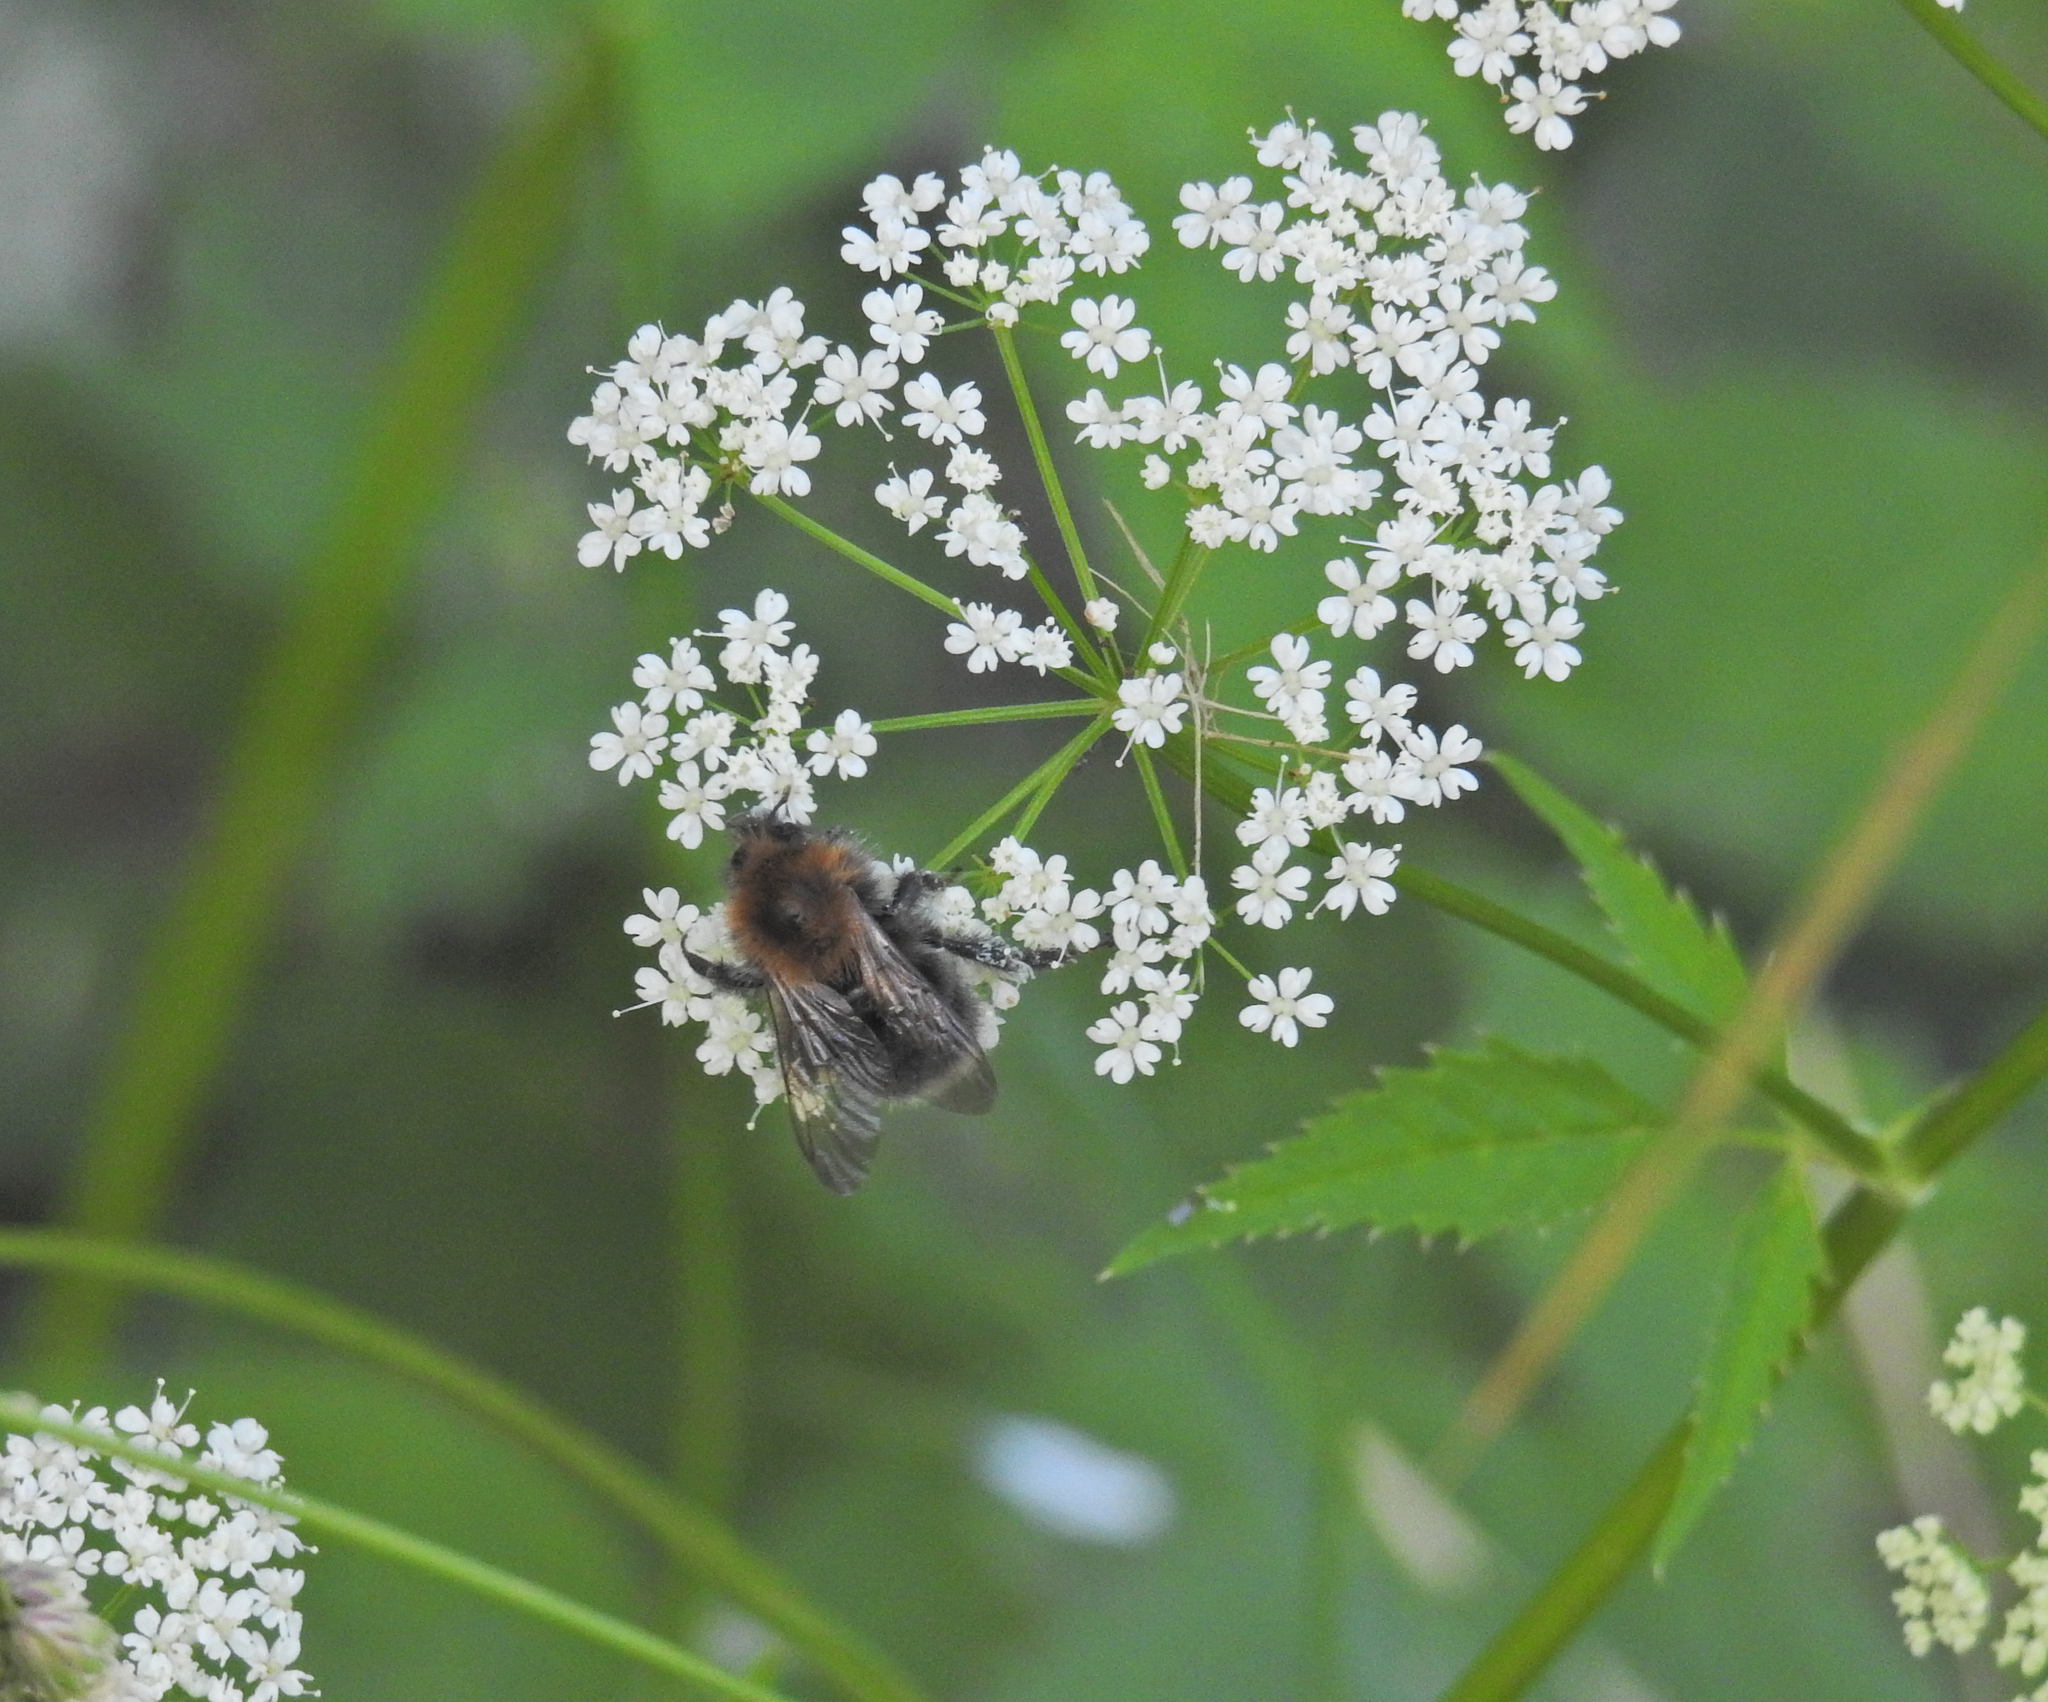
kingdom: Animalia
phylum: Arthropoda
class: Insecta
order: Hymenoptera
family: Apidae
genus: Bombus
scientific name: Bombus hypnorum
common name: New garden bumblebee
